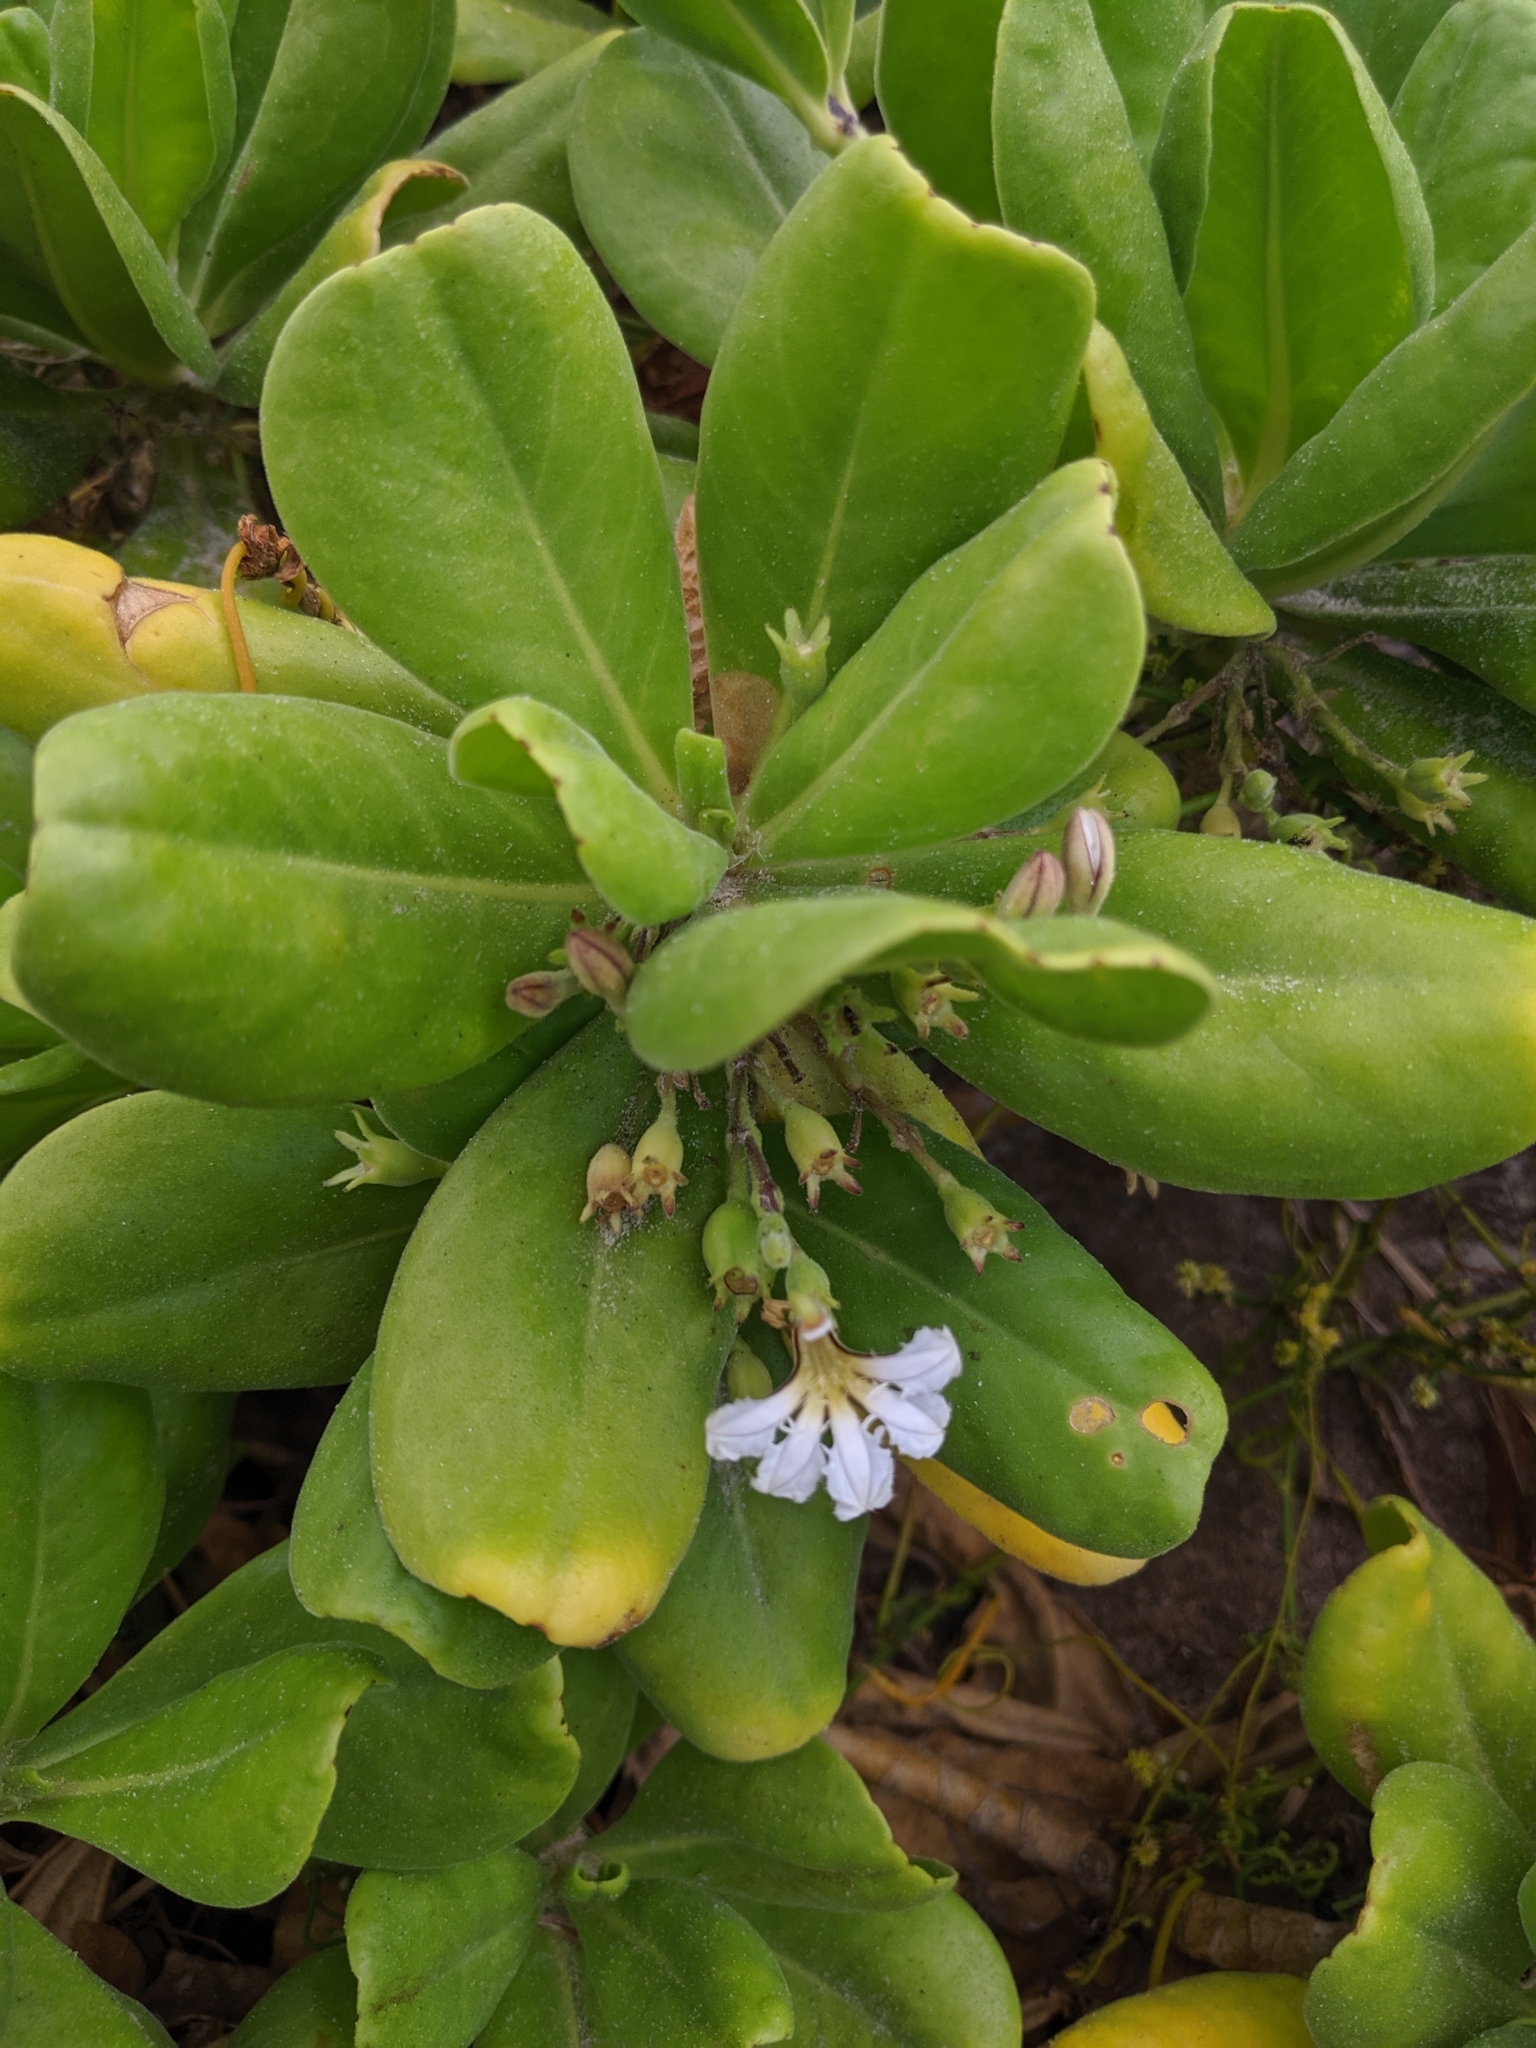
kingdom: Plantae
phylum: Tracheophyta
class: Magnoliopsida
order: Asterales
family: Goodeniaceae
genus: Scaevola
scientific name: Scaevola taccada
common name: Sea lettucetree
